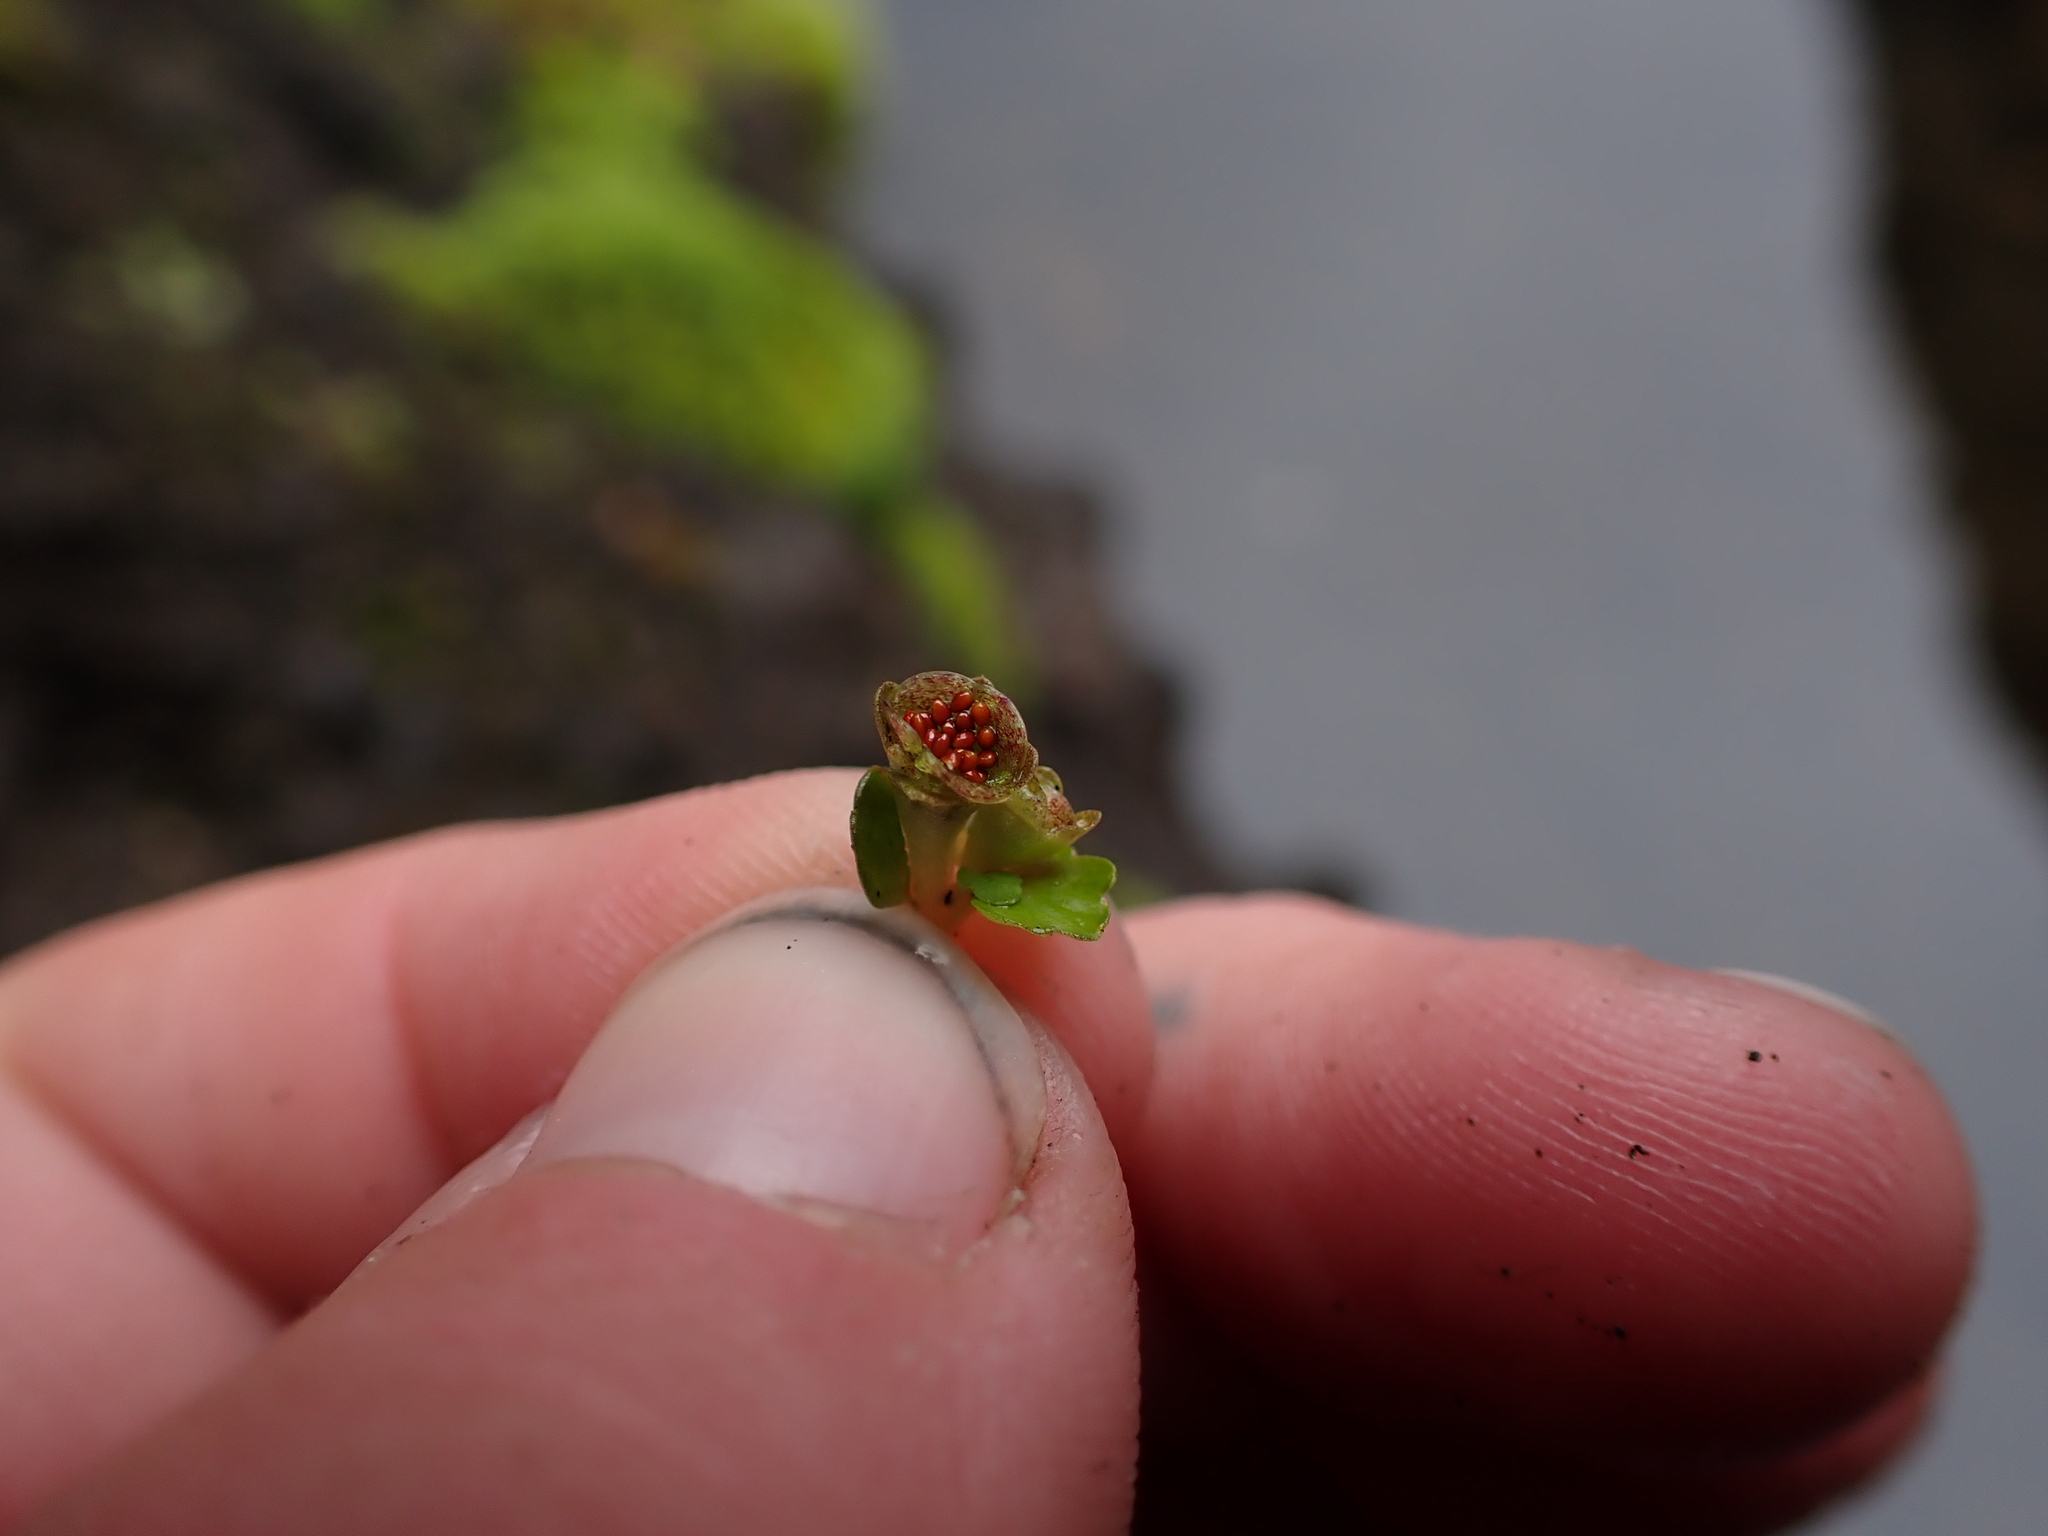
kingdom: Plantae
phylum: Tracheophyta
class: Magnoliopsida
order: Saxifragales
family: Saxifragaceae
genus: Chrysosplenium
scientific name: Chrysosplenium tetrandrum
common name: Green saxifrage
